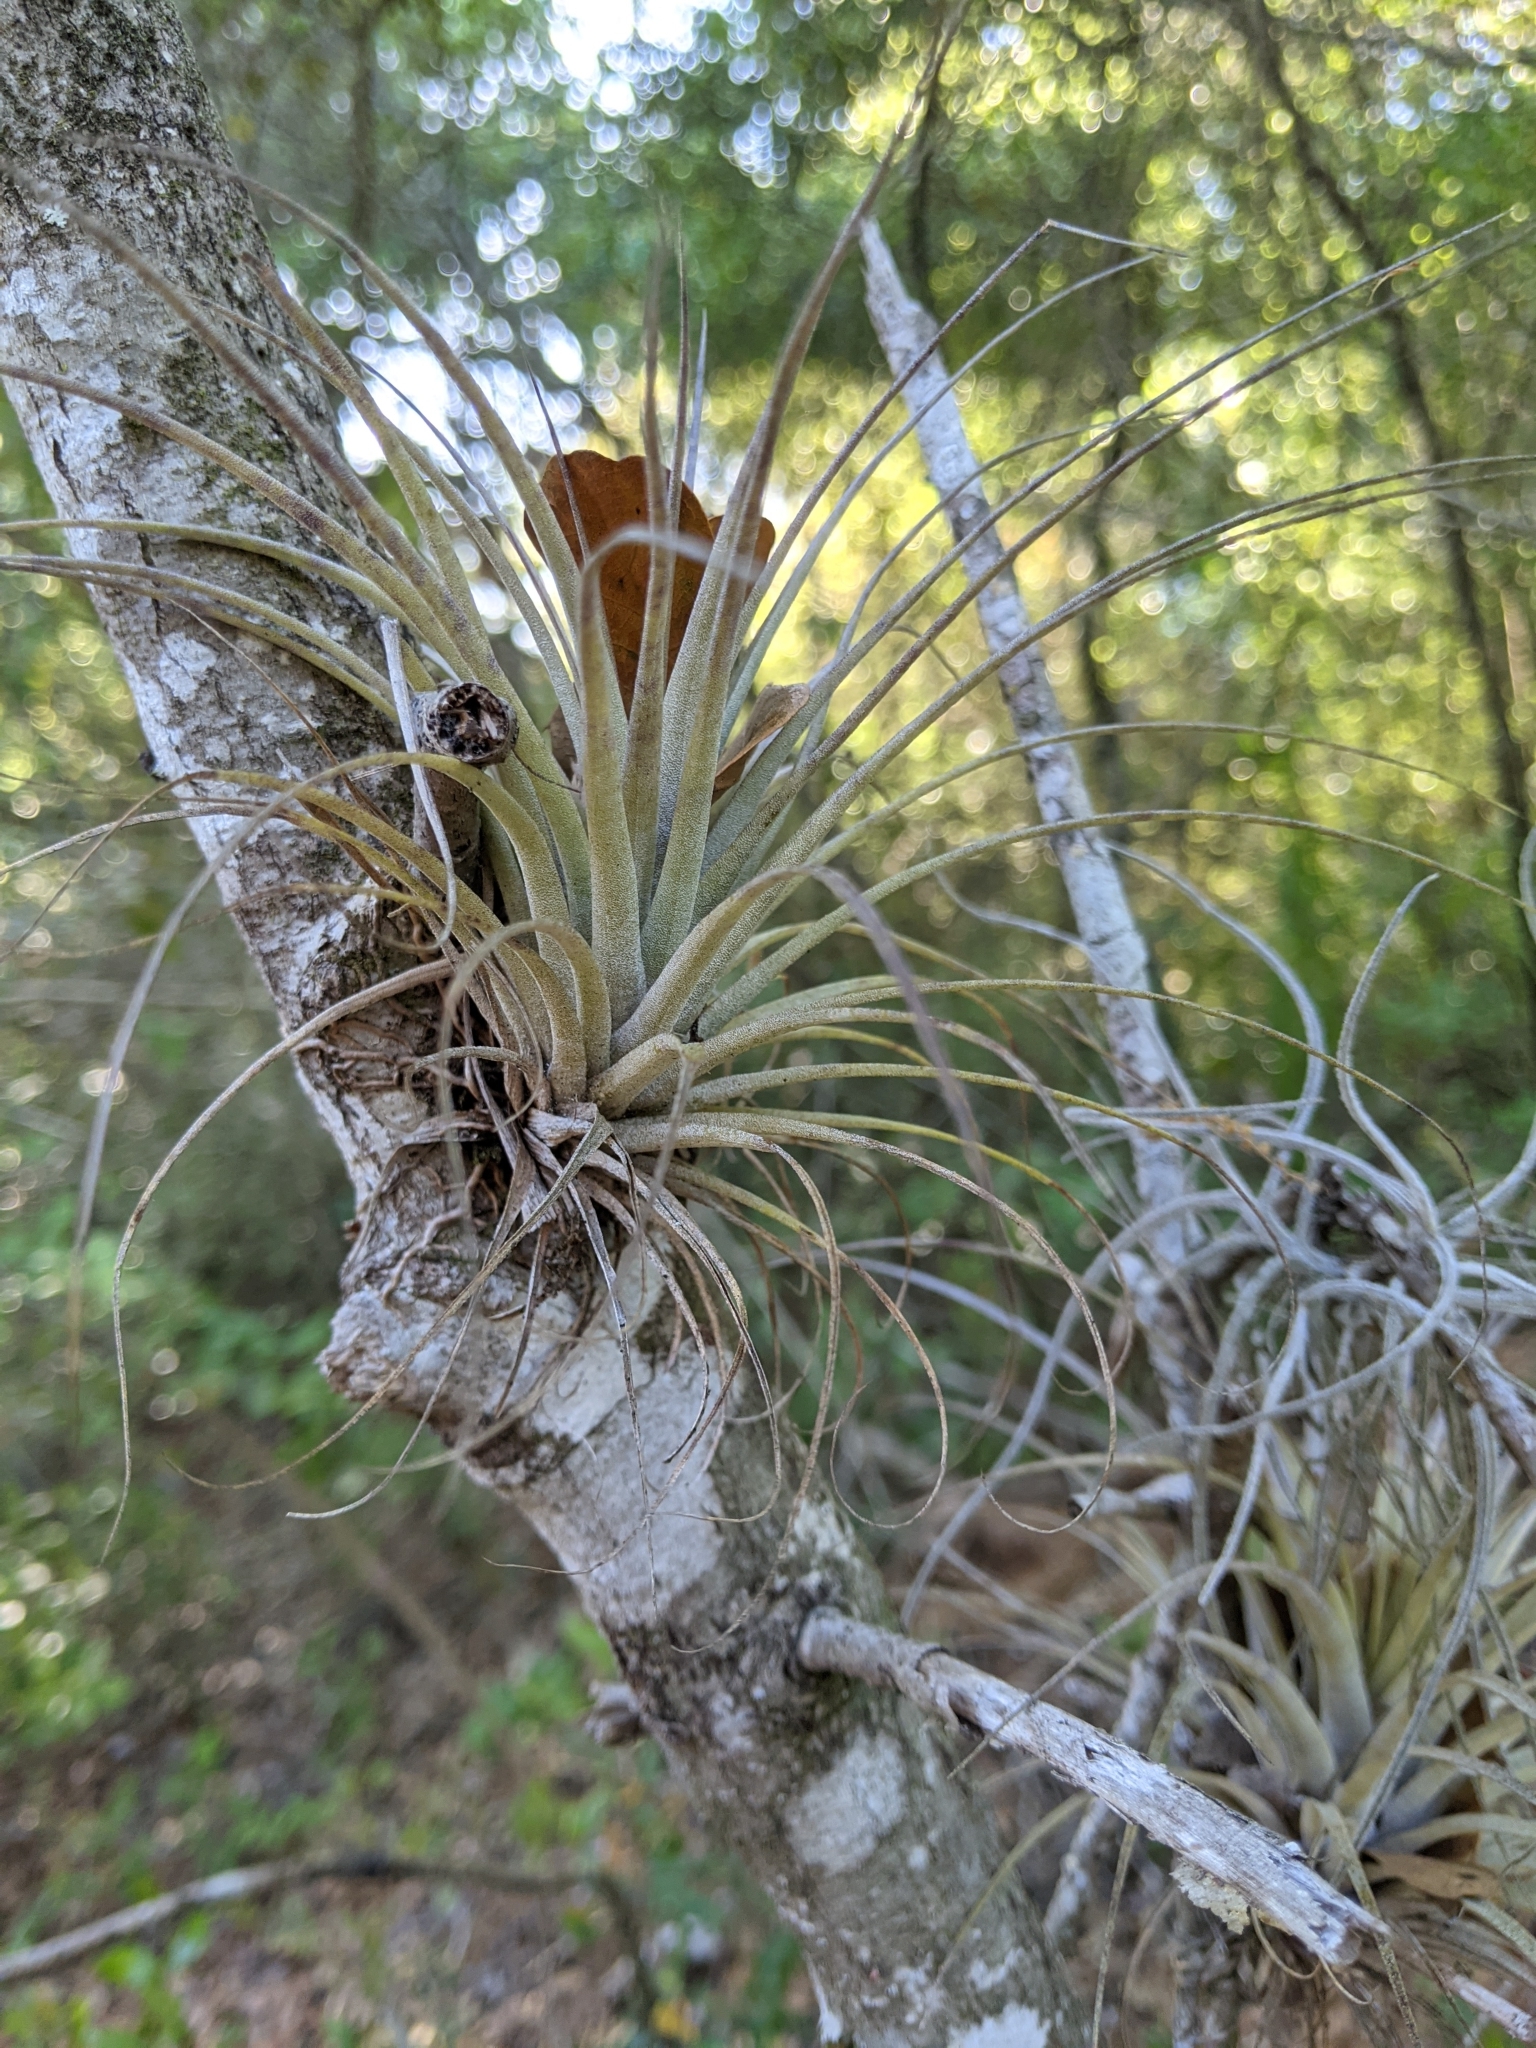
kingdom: Plantae
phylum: Tracheophyta
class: Liliopsida
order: Poales
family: Bromeliaceae
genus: Tillandsia
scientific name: Tillandsia fasciculata
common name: Giant airplant
